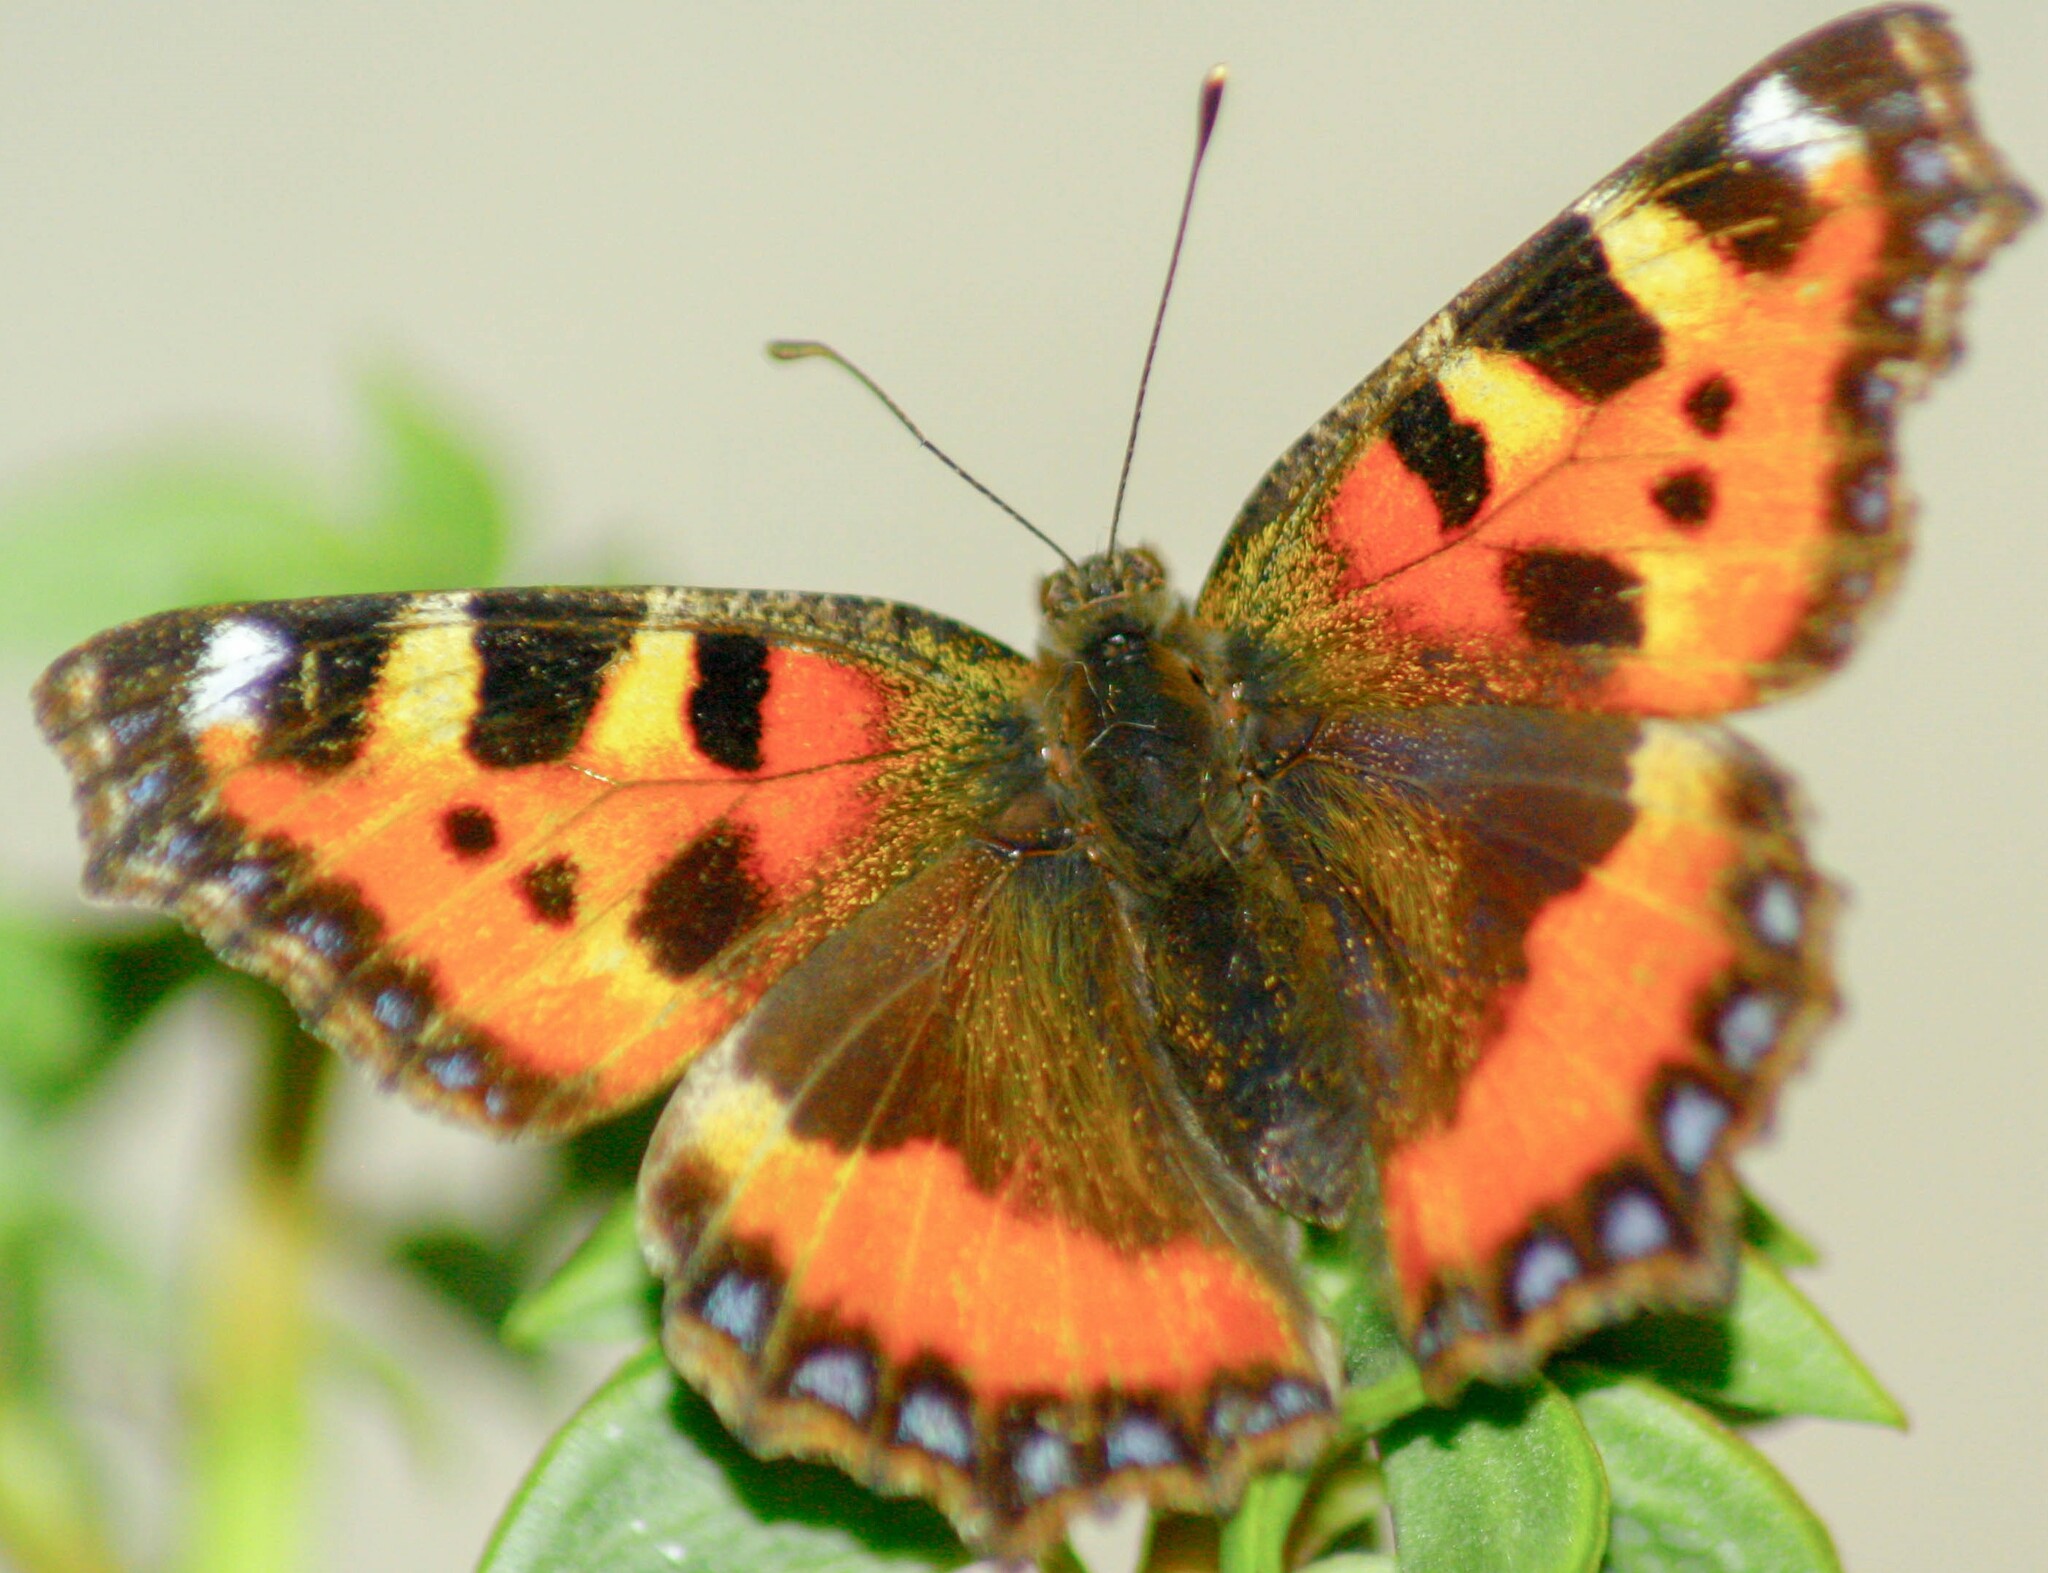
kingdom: Animalia
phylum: Arthropoda
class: Insecta
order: Lepidoptera
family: Nymphalidae
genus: Aglais
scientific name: Aglais urticae
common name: Small tortoiseshell
